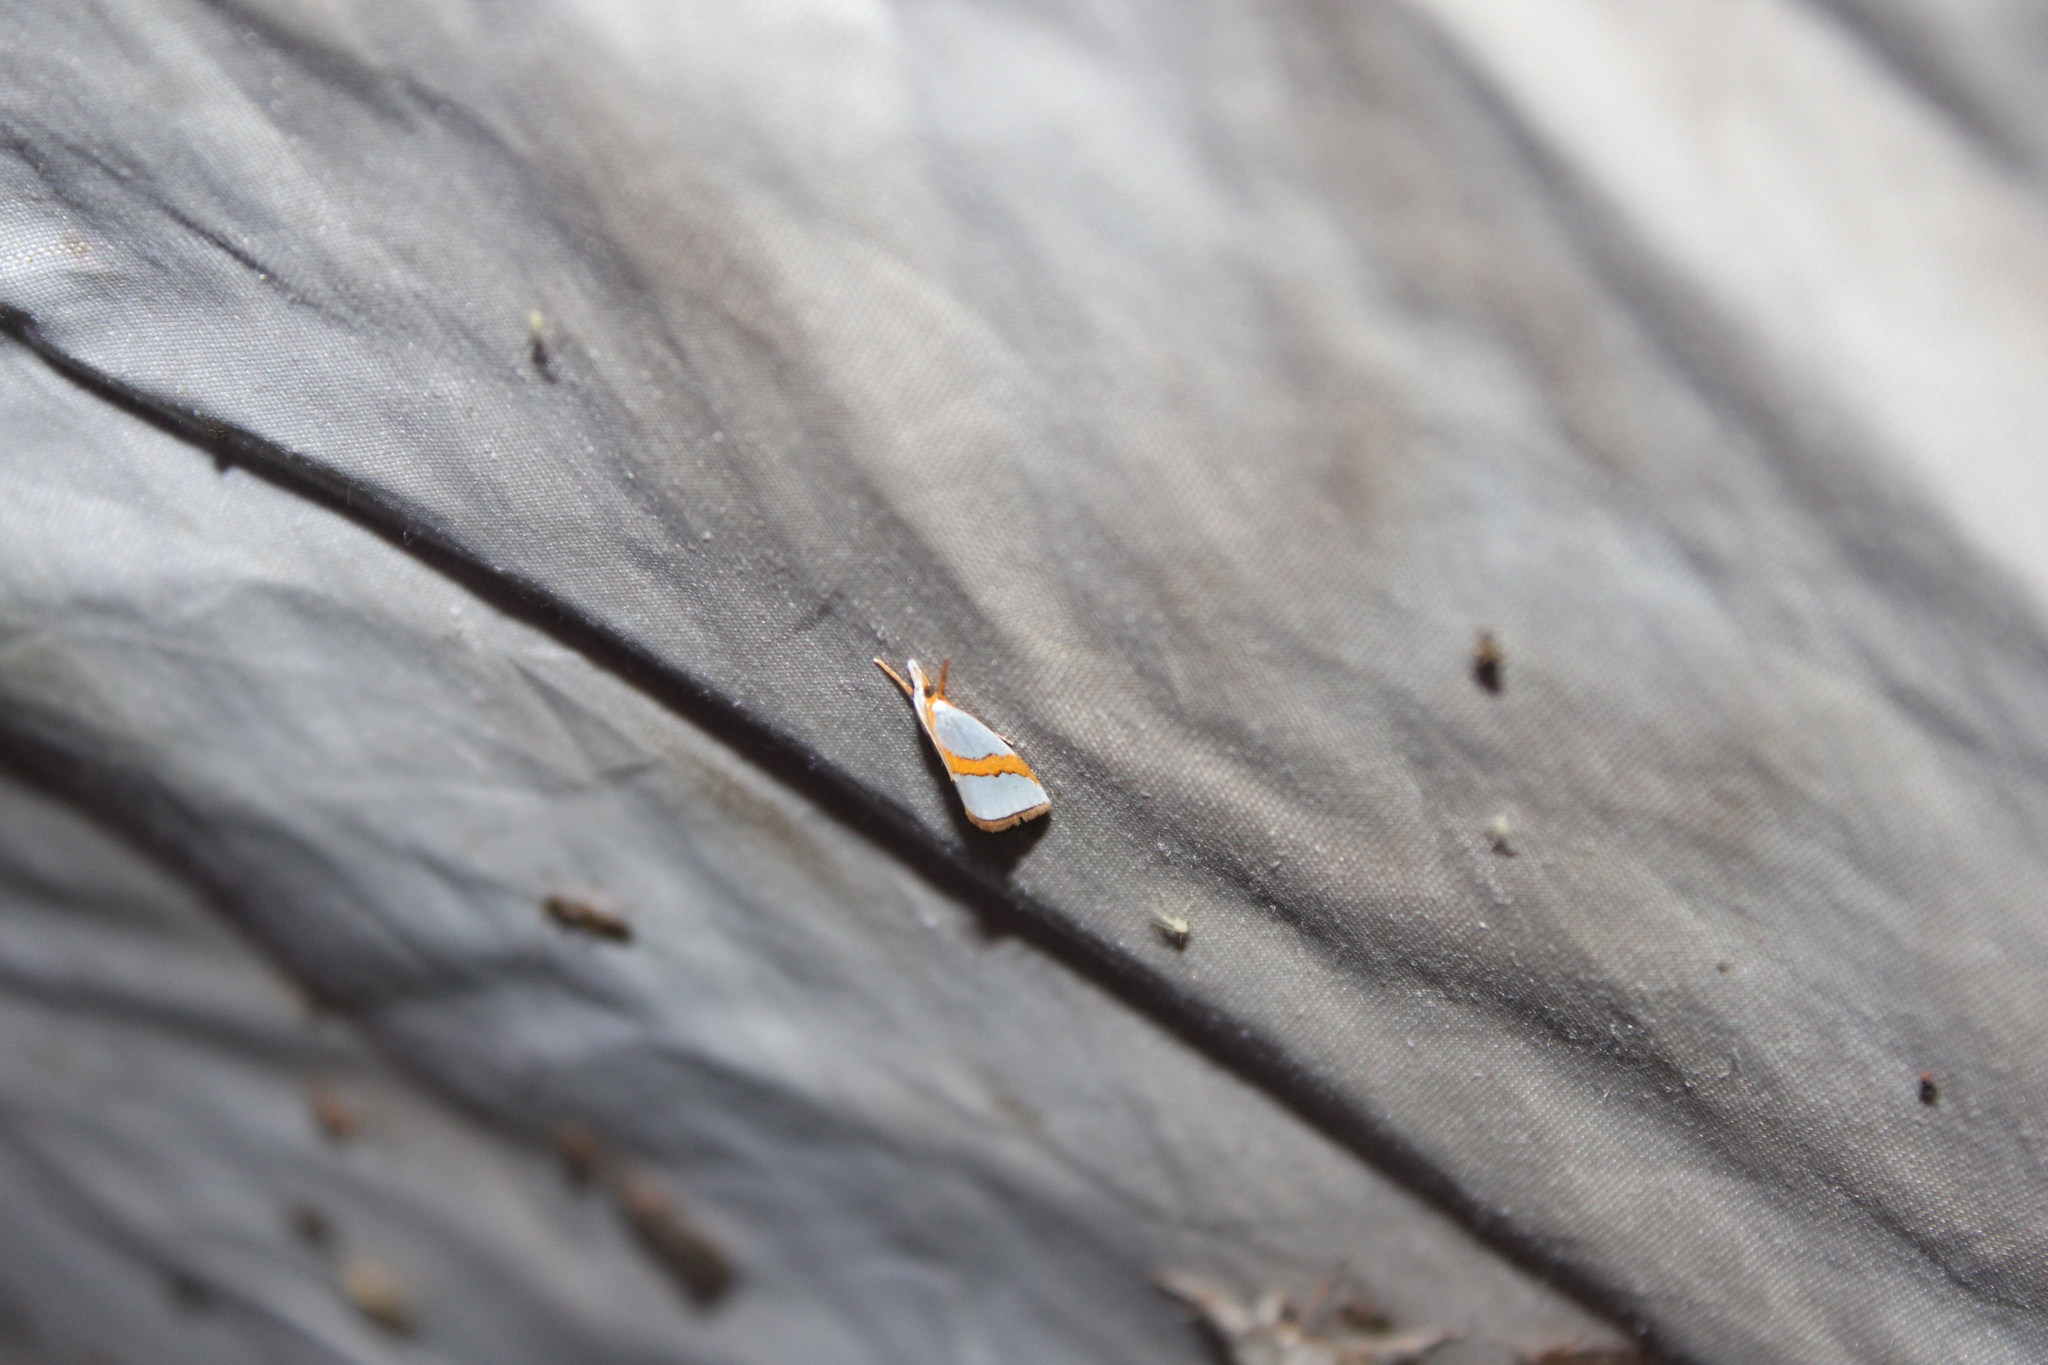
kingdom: Animalia
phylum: Arthropoda
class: Insecta
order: Lepidoptera
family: Crambidae
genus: Vaxi
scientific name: Vaxi critica
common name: Straight-lined vaxi moth
